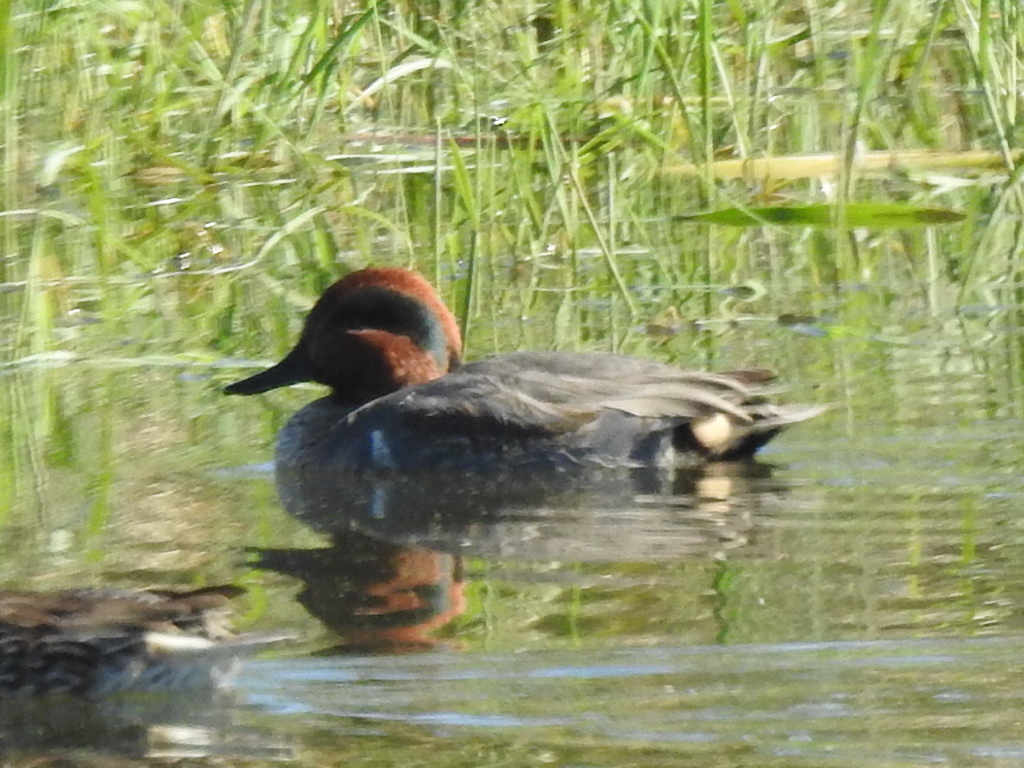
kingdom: Animalia
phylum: Chordata
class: Aves
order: Anseriformes
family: Anatidae
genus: Anas
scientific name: Anas crecca
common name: Eurasian teal
